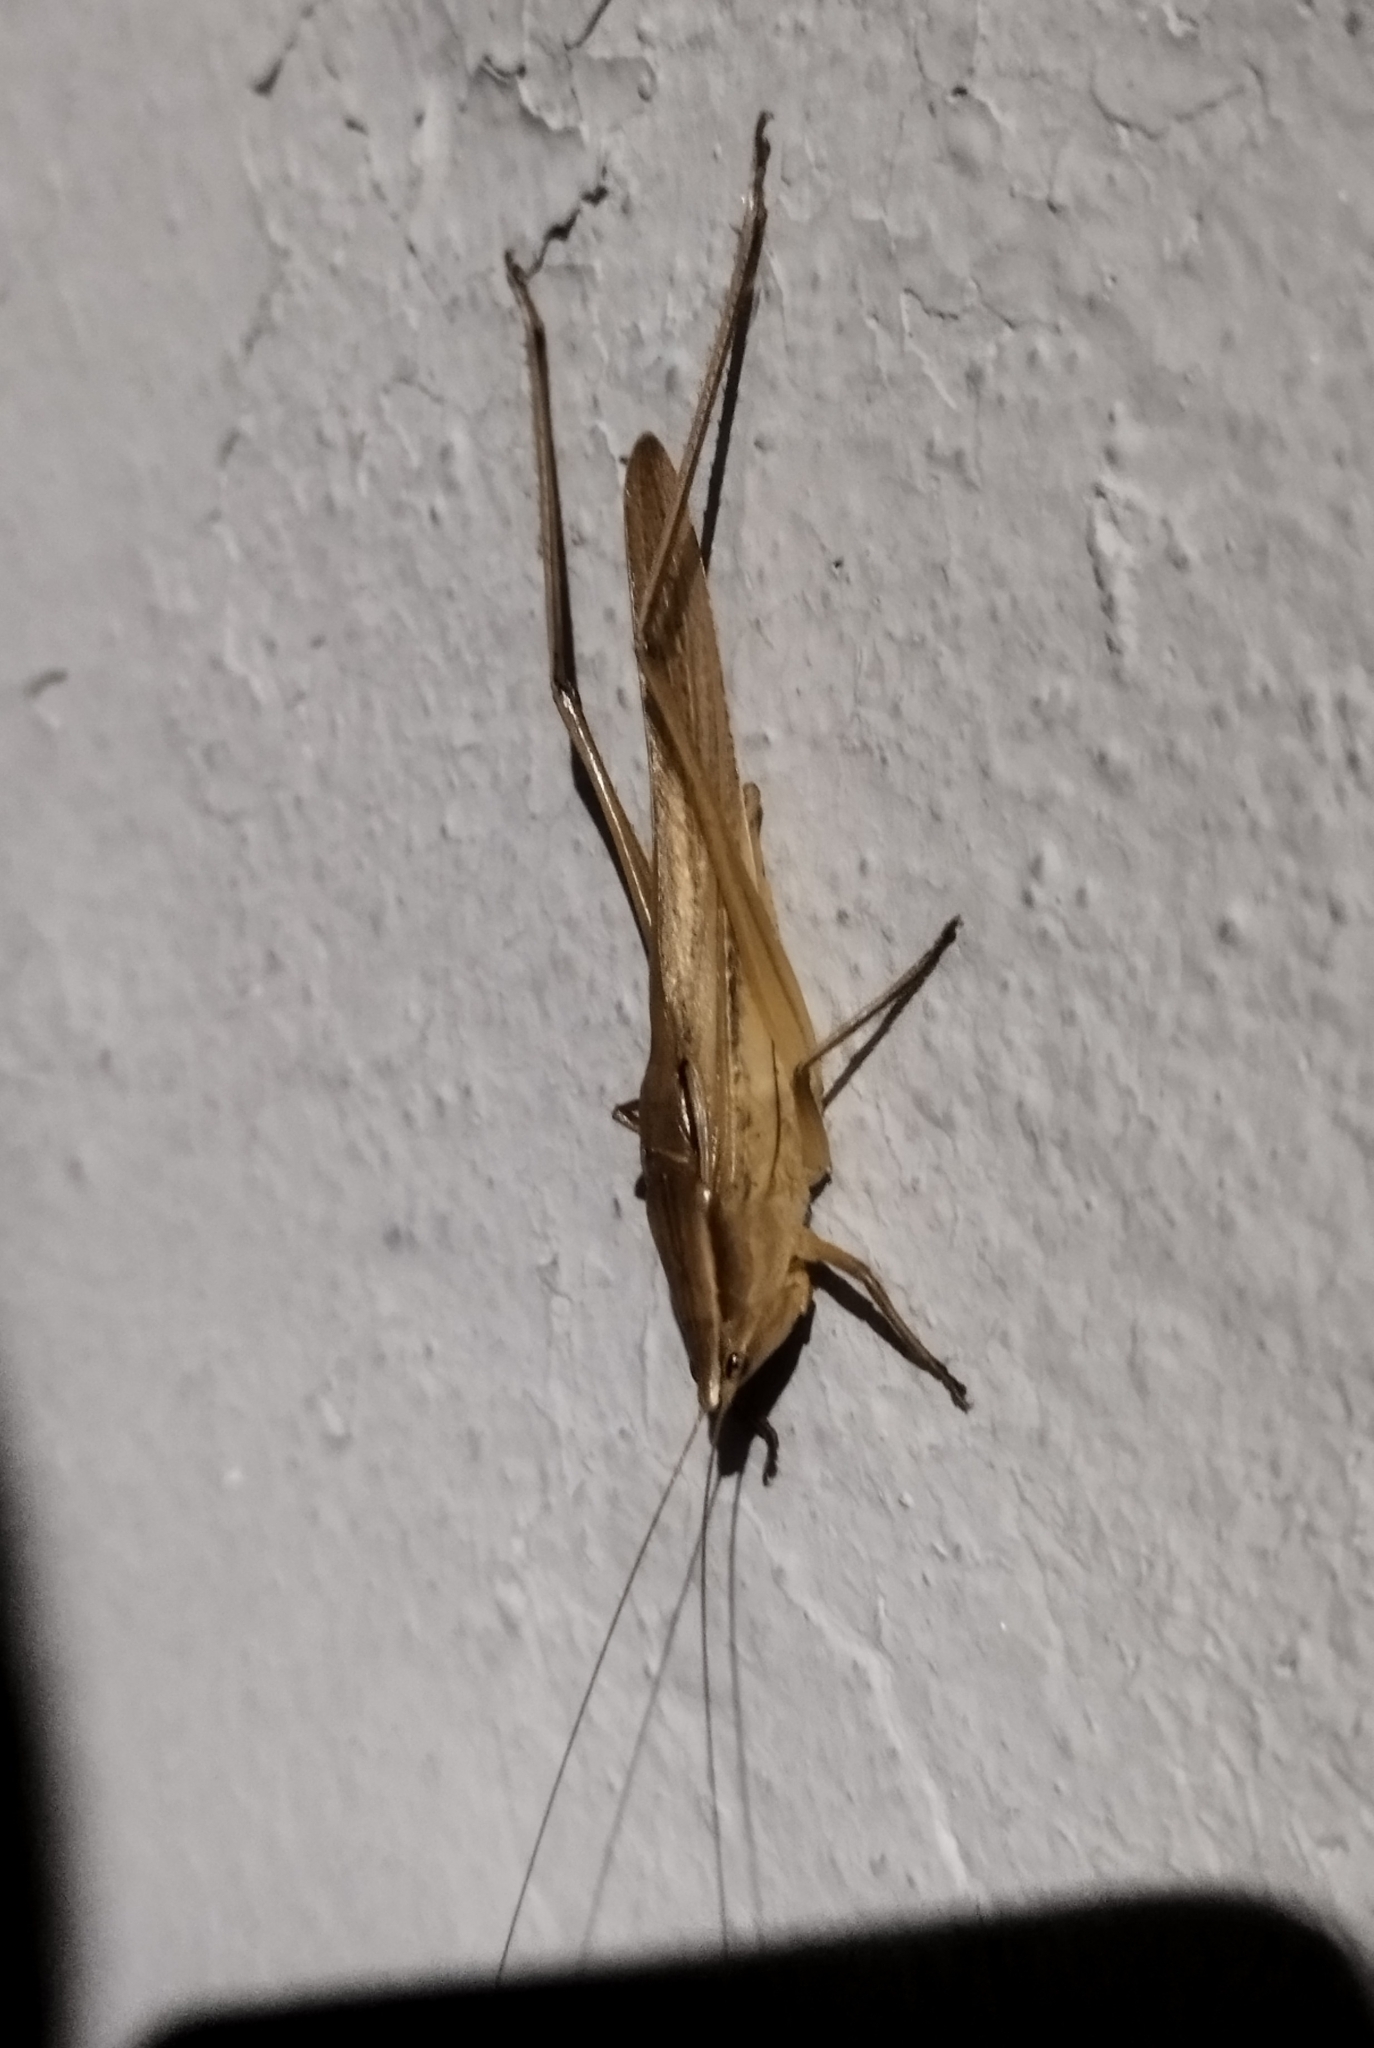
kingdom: Animalia
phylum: Arthropoda
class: Insecta
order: Orthoptera
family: Tettigoniidae
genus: Neoconocephalus
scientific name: Neoconocephalus spiniger
